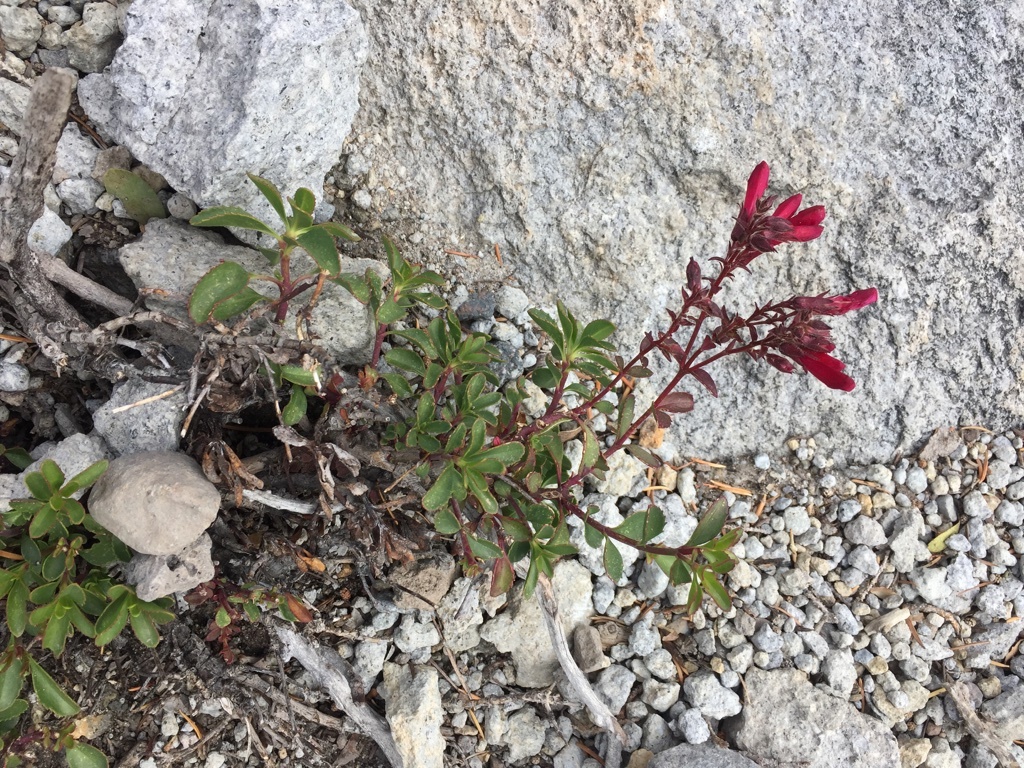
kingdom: Plantae
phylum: Tracheophyta
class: Magnoliopsida
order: Lamiales
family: Plantaginaceae
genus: Penstemon
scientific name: Penstemon newberryi
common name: Mountain-pride
